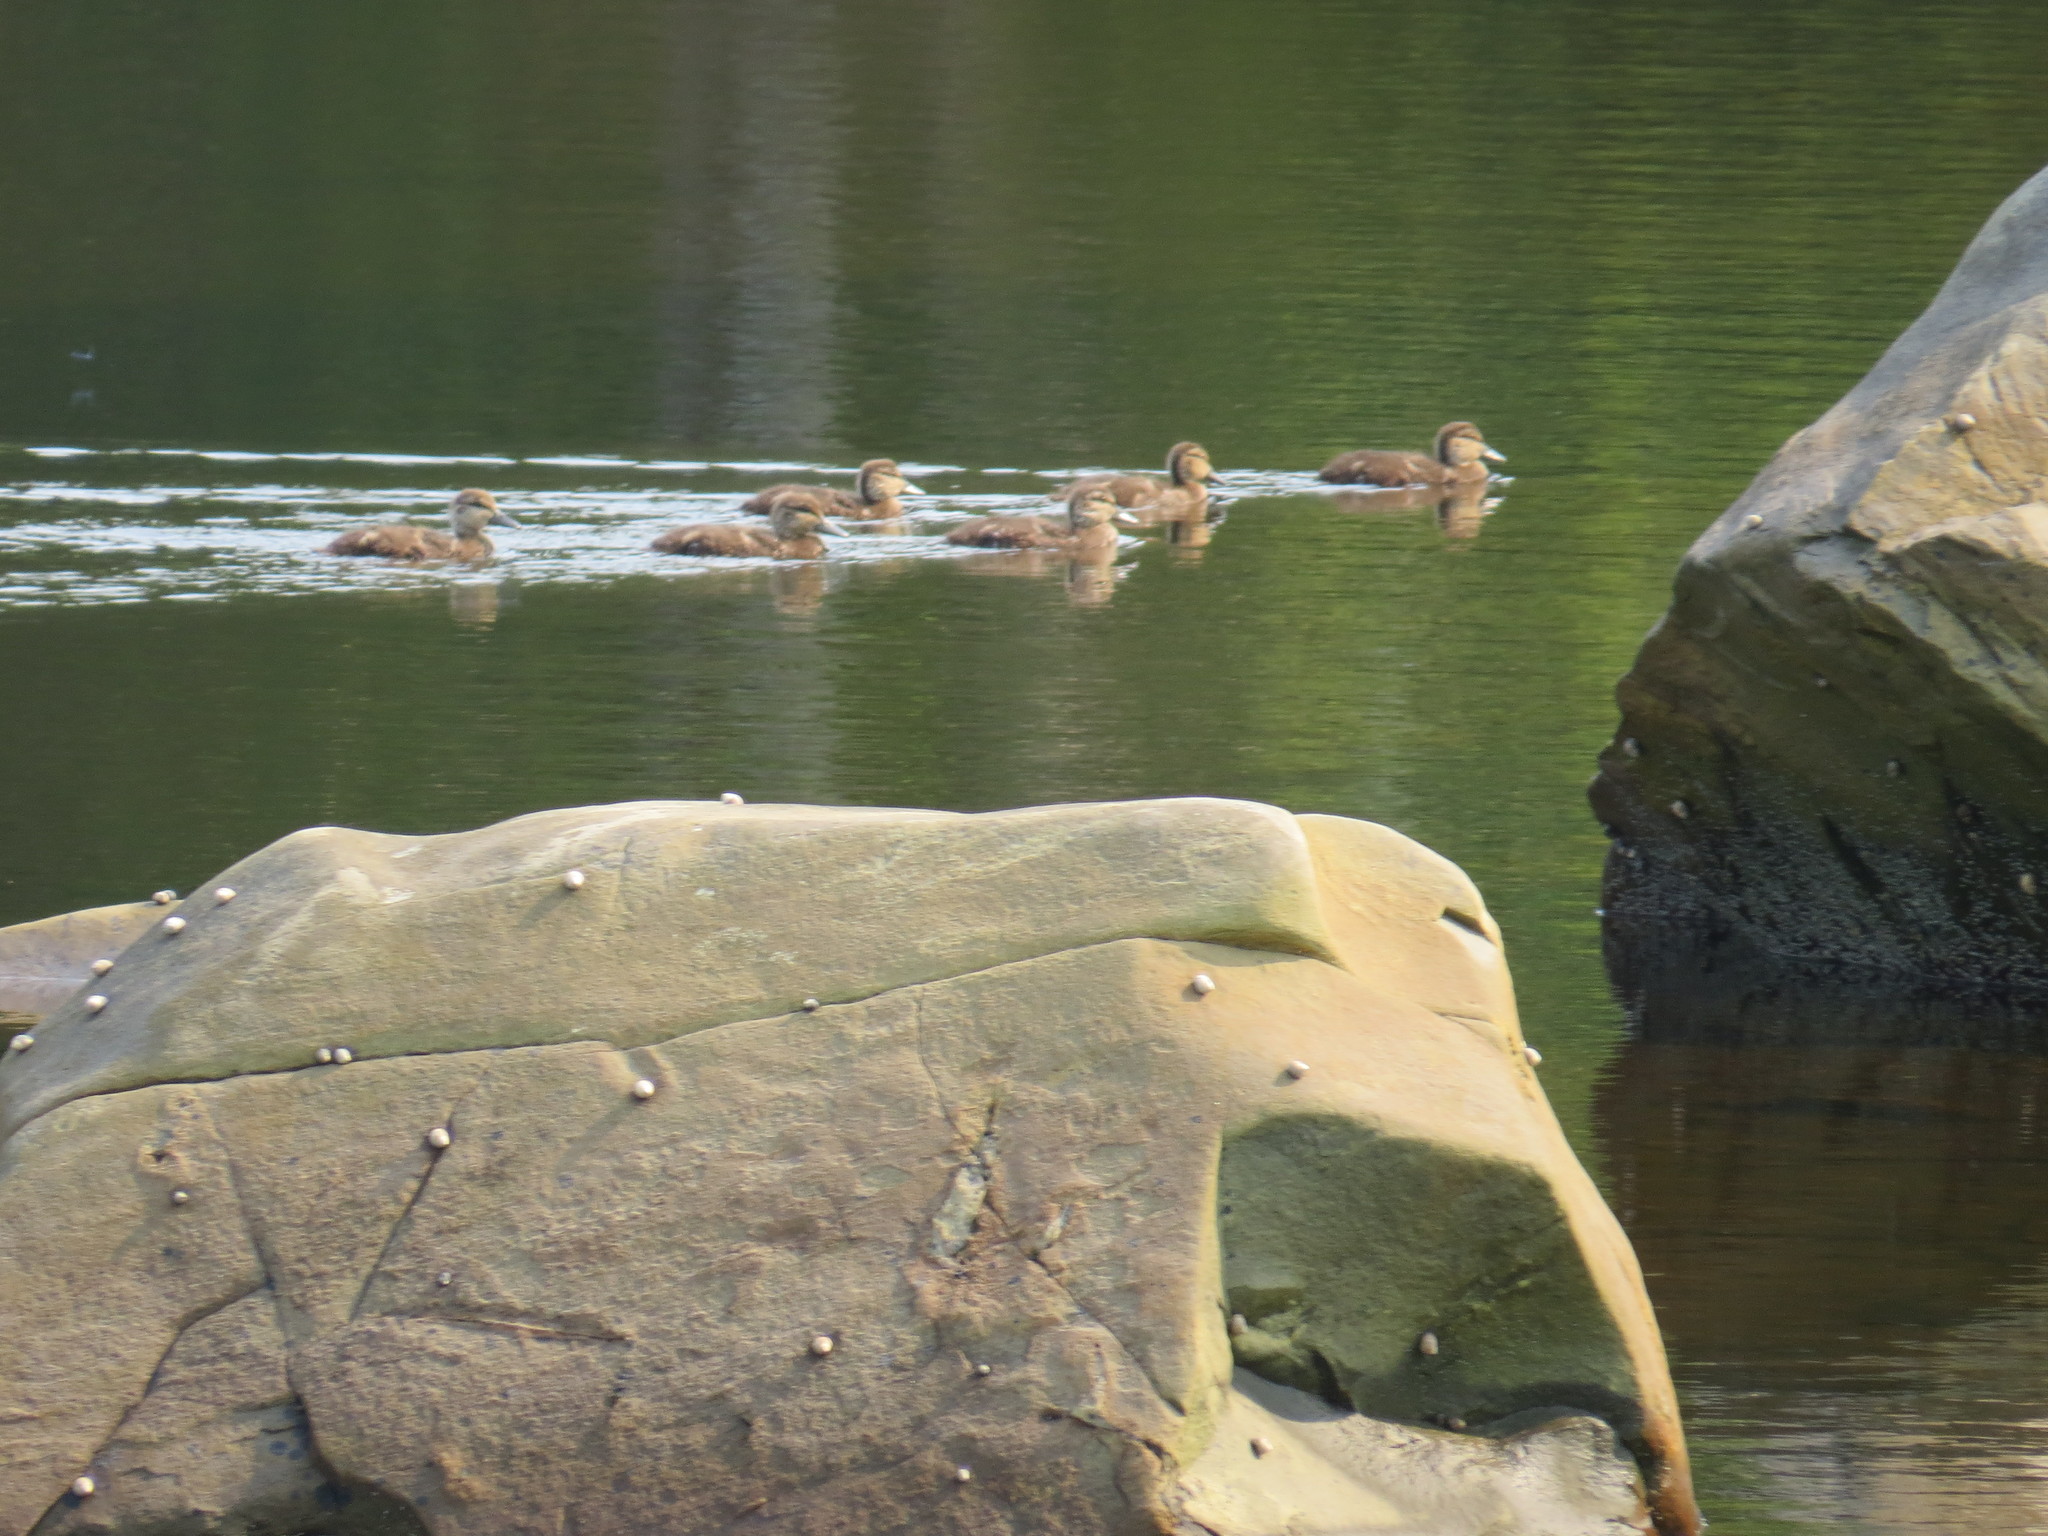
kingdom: Animalia
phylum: Chordata
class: Aves
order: Anseriformes
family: Anatidae
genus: Anas
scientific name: Anas rubripes
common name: American black duck
